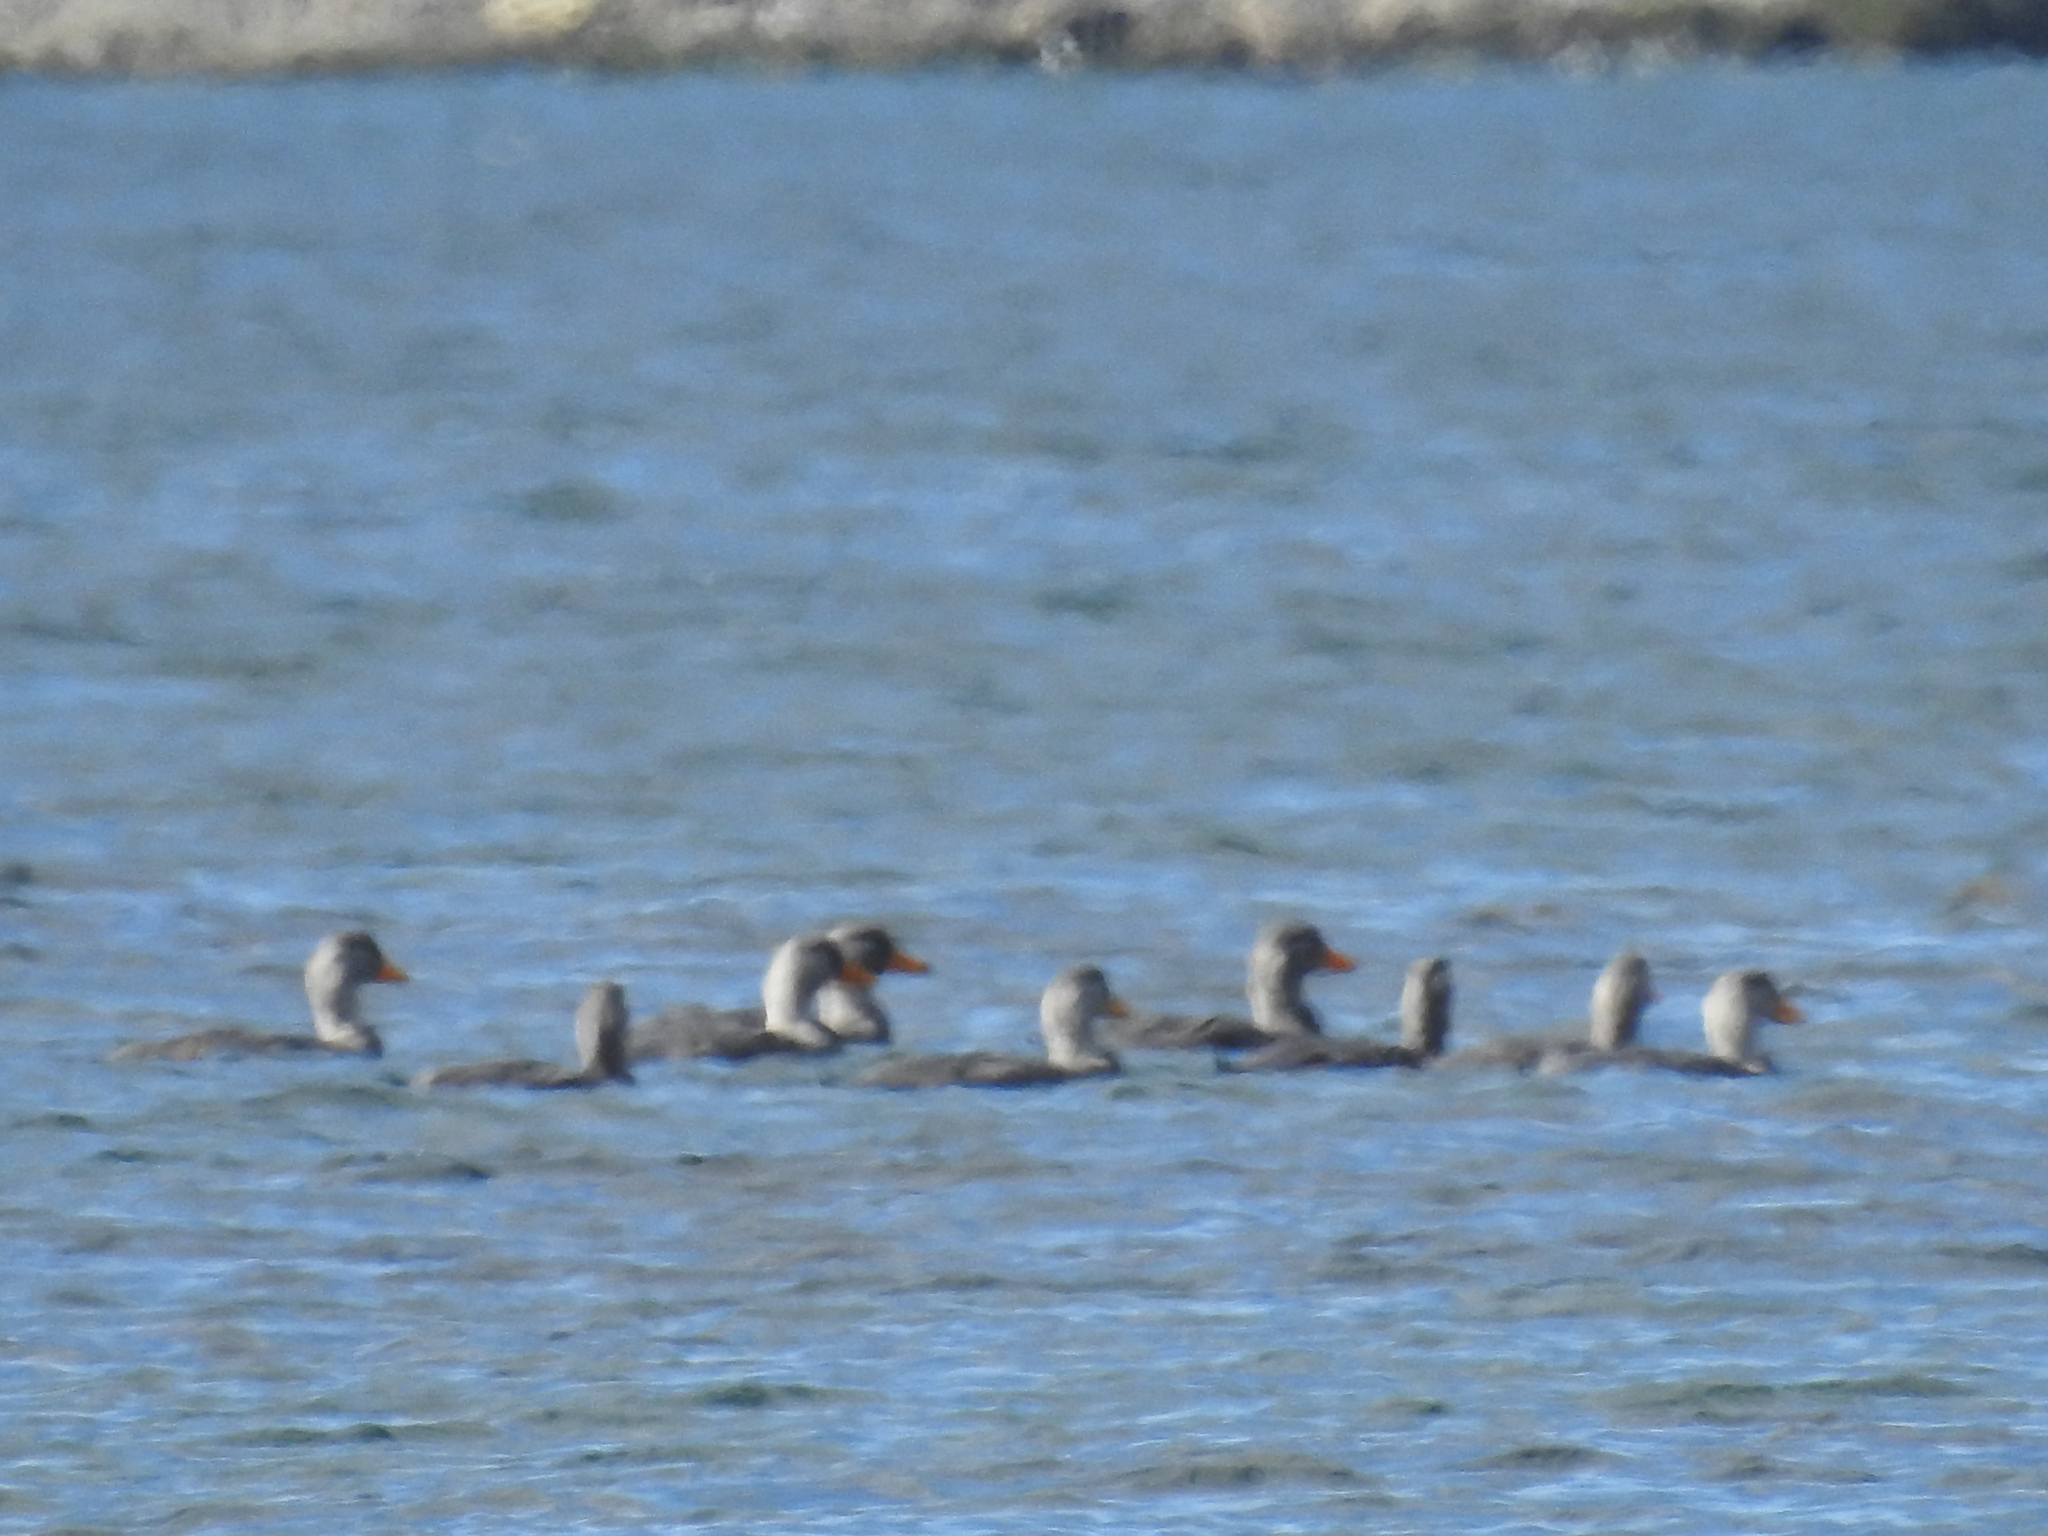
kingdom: Animalia
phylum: Chordata
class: Aves
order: Anseriformes
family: Anatidae
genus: Tachyeres
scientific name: Tachyeres pteneres
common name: Fuegian steamer duck
